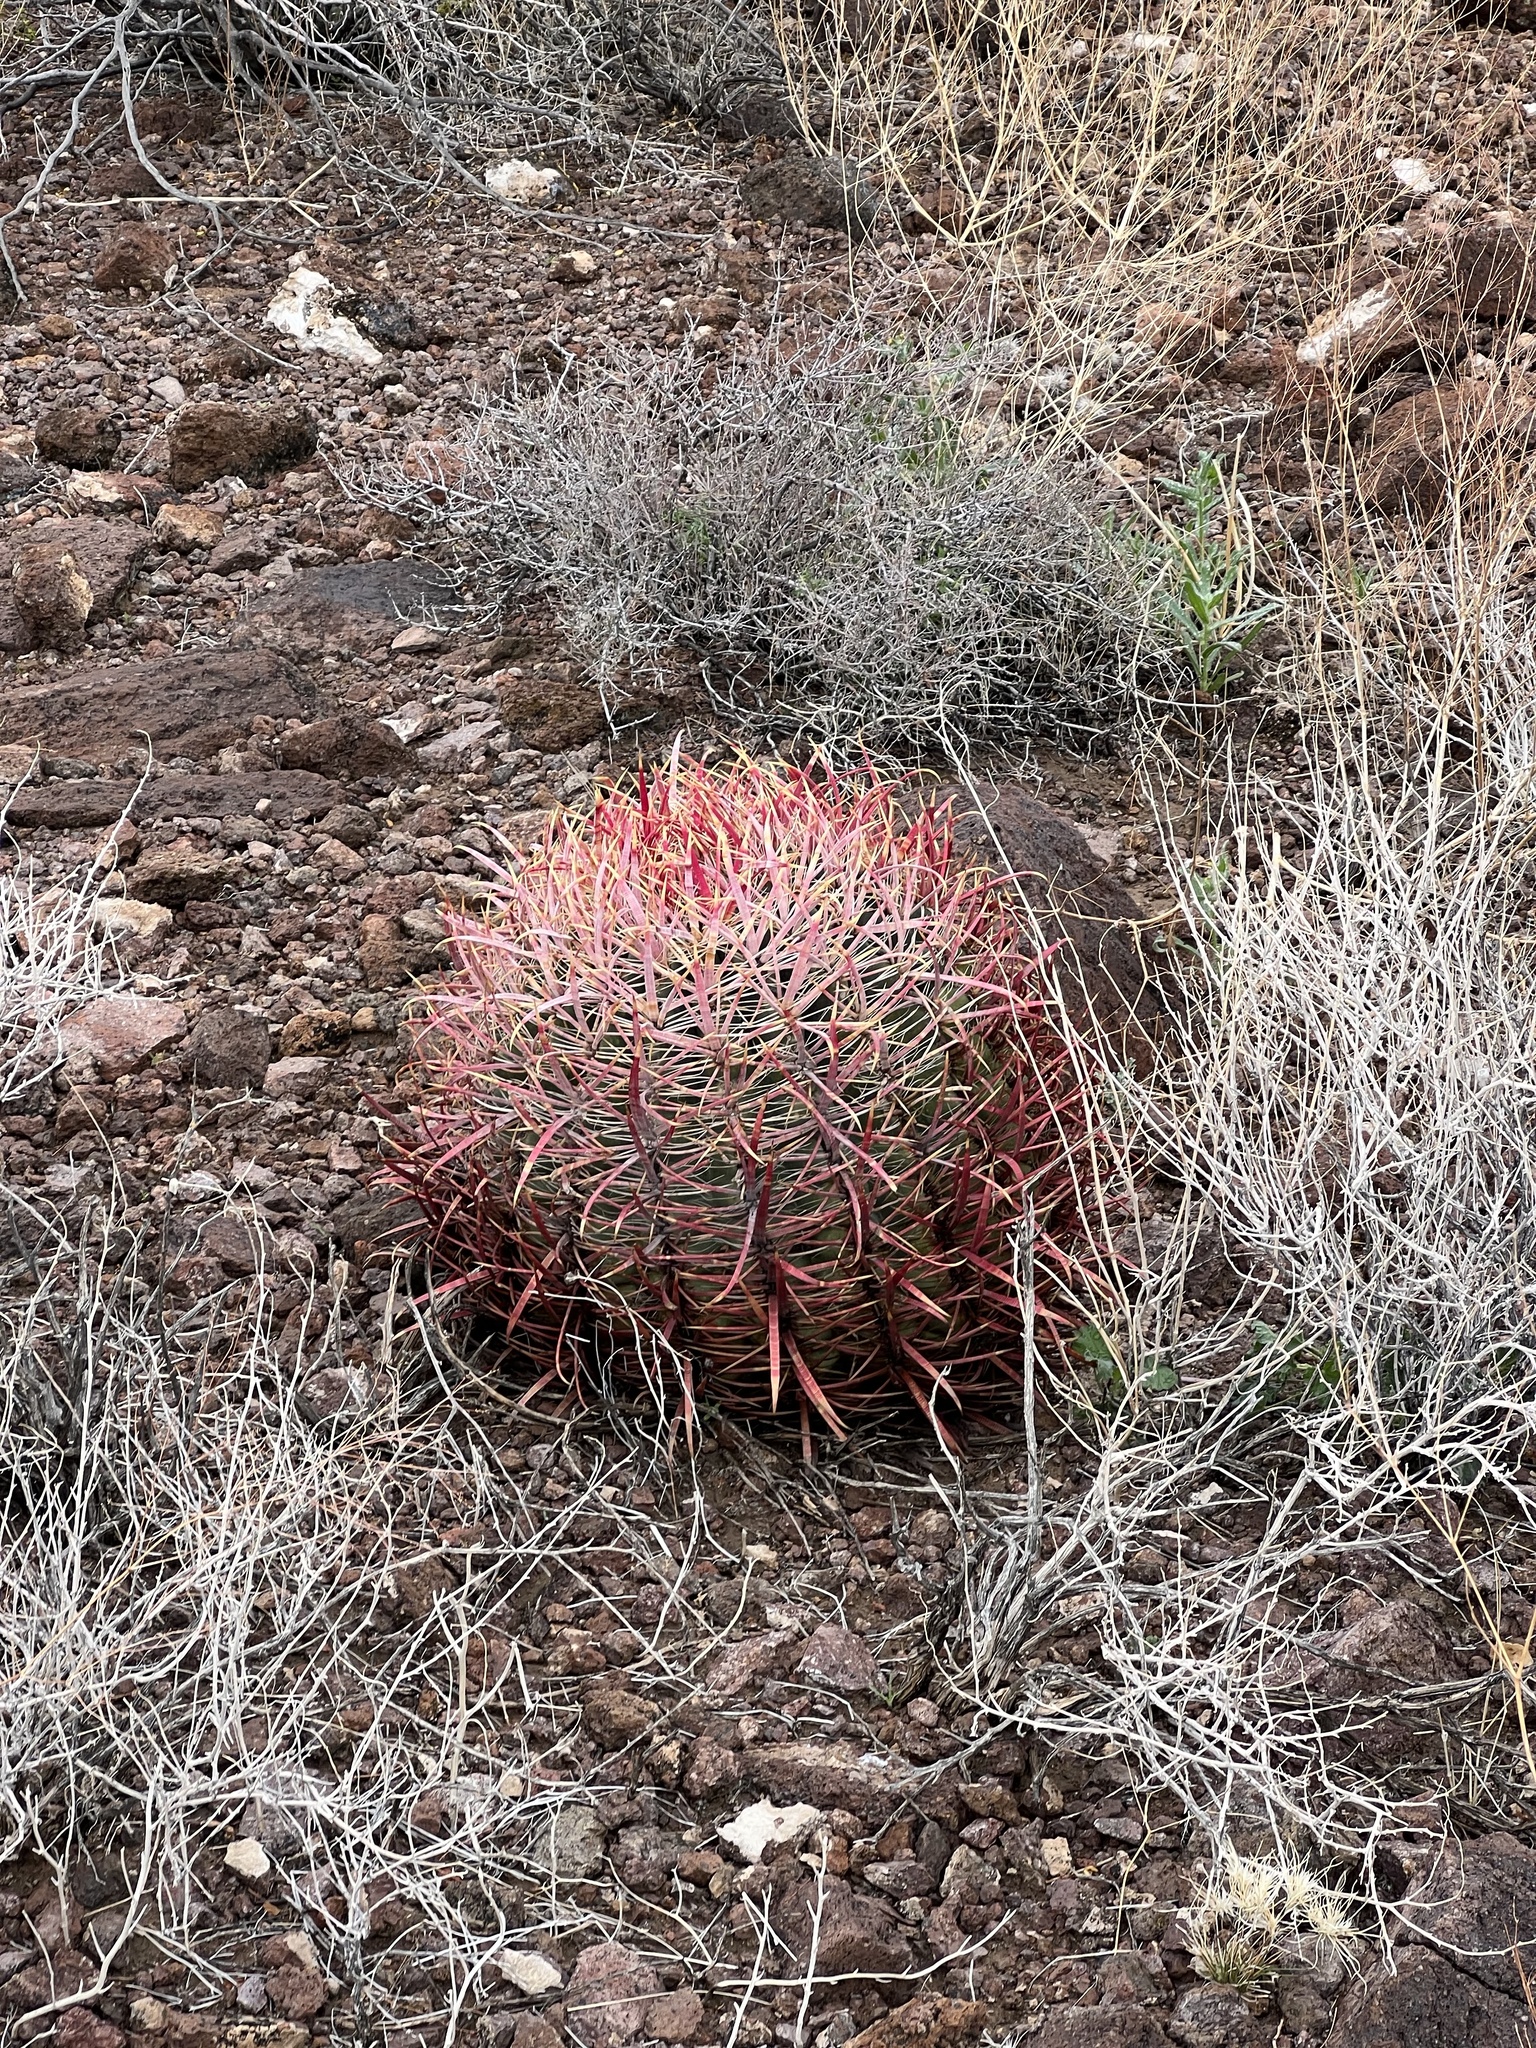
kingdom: Plantae
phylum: Tracheophyta
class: Magnoliopsida
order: Caryophyllales
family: Cactaceae
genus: Ferocactus
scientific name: Ferocactus cylindraceus
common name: California barrel cactus
